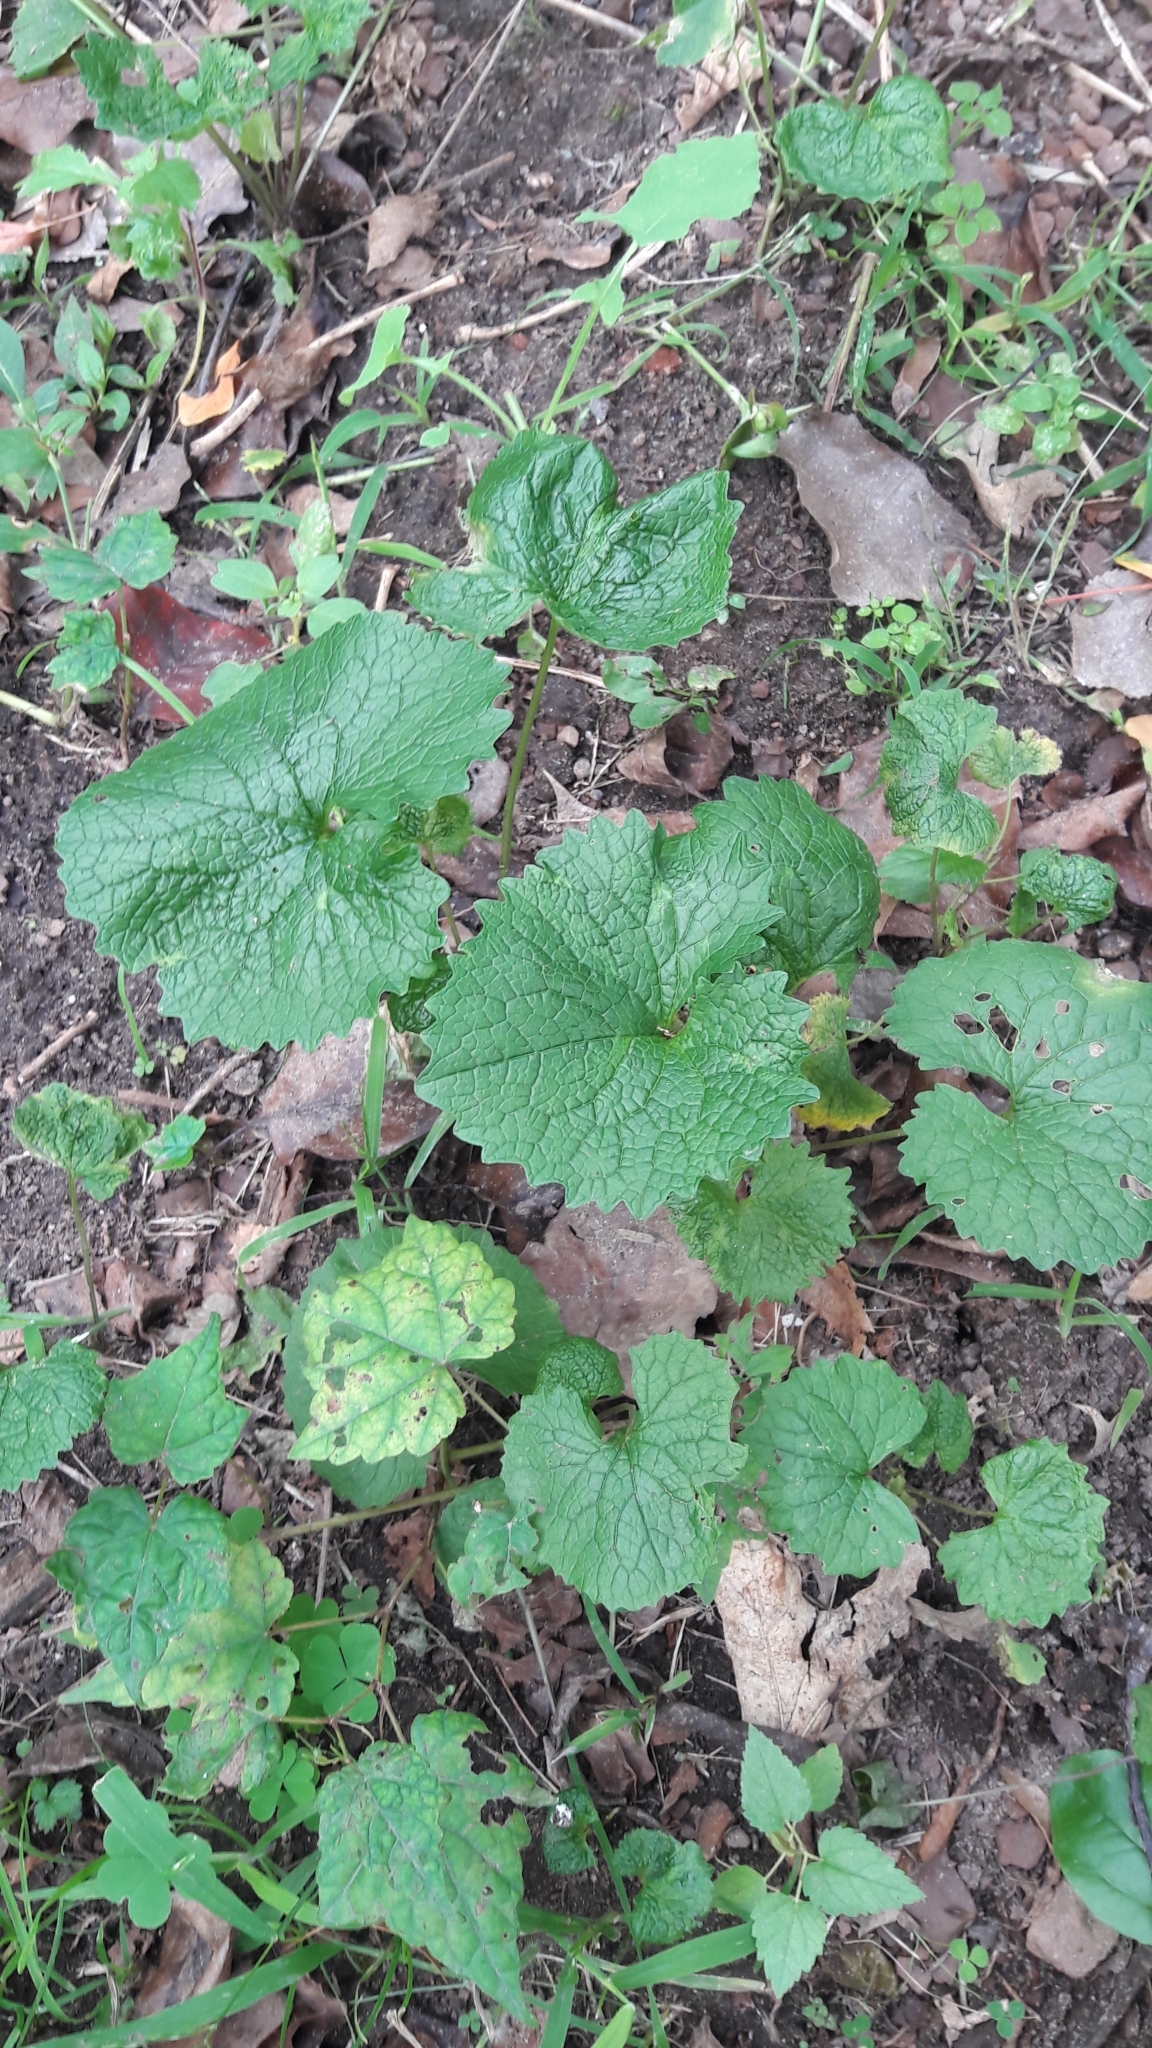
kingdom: Plantae
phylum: Tracheophyta
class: Magnoliopsida
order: Brassicales
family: Brassicaceae
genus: Alliaria
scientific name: Alliaria petiolata
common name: Garlic mustard
